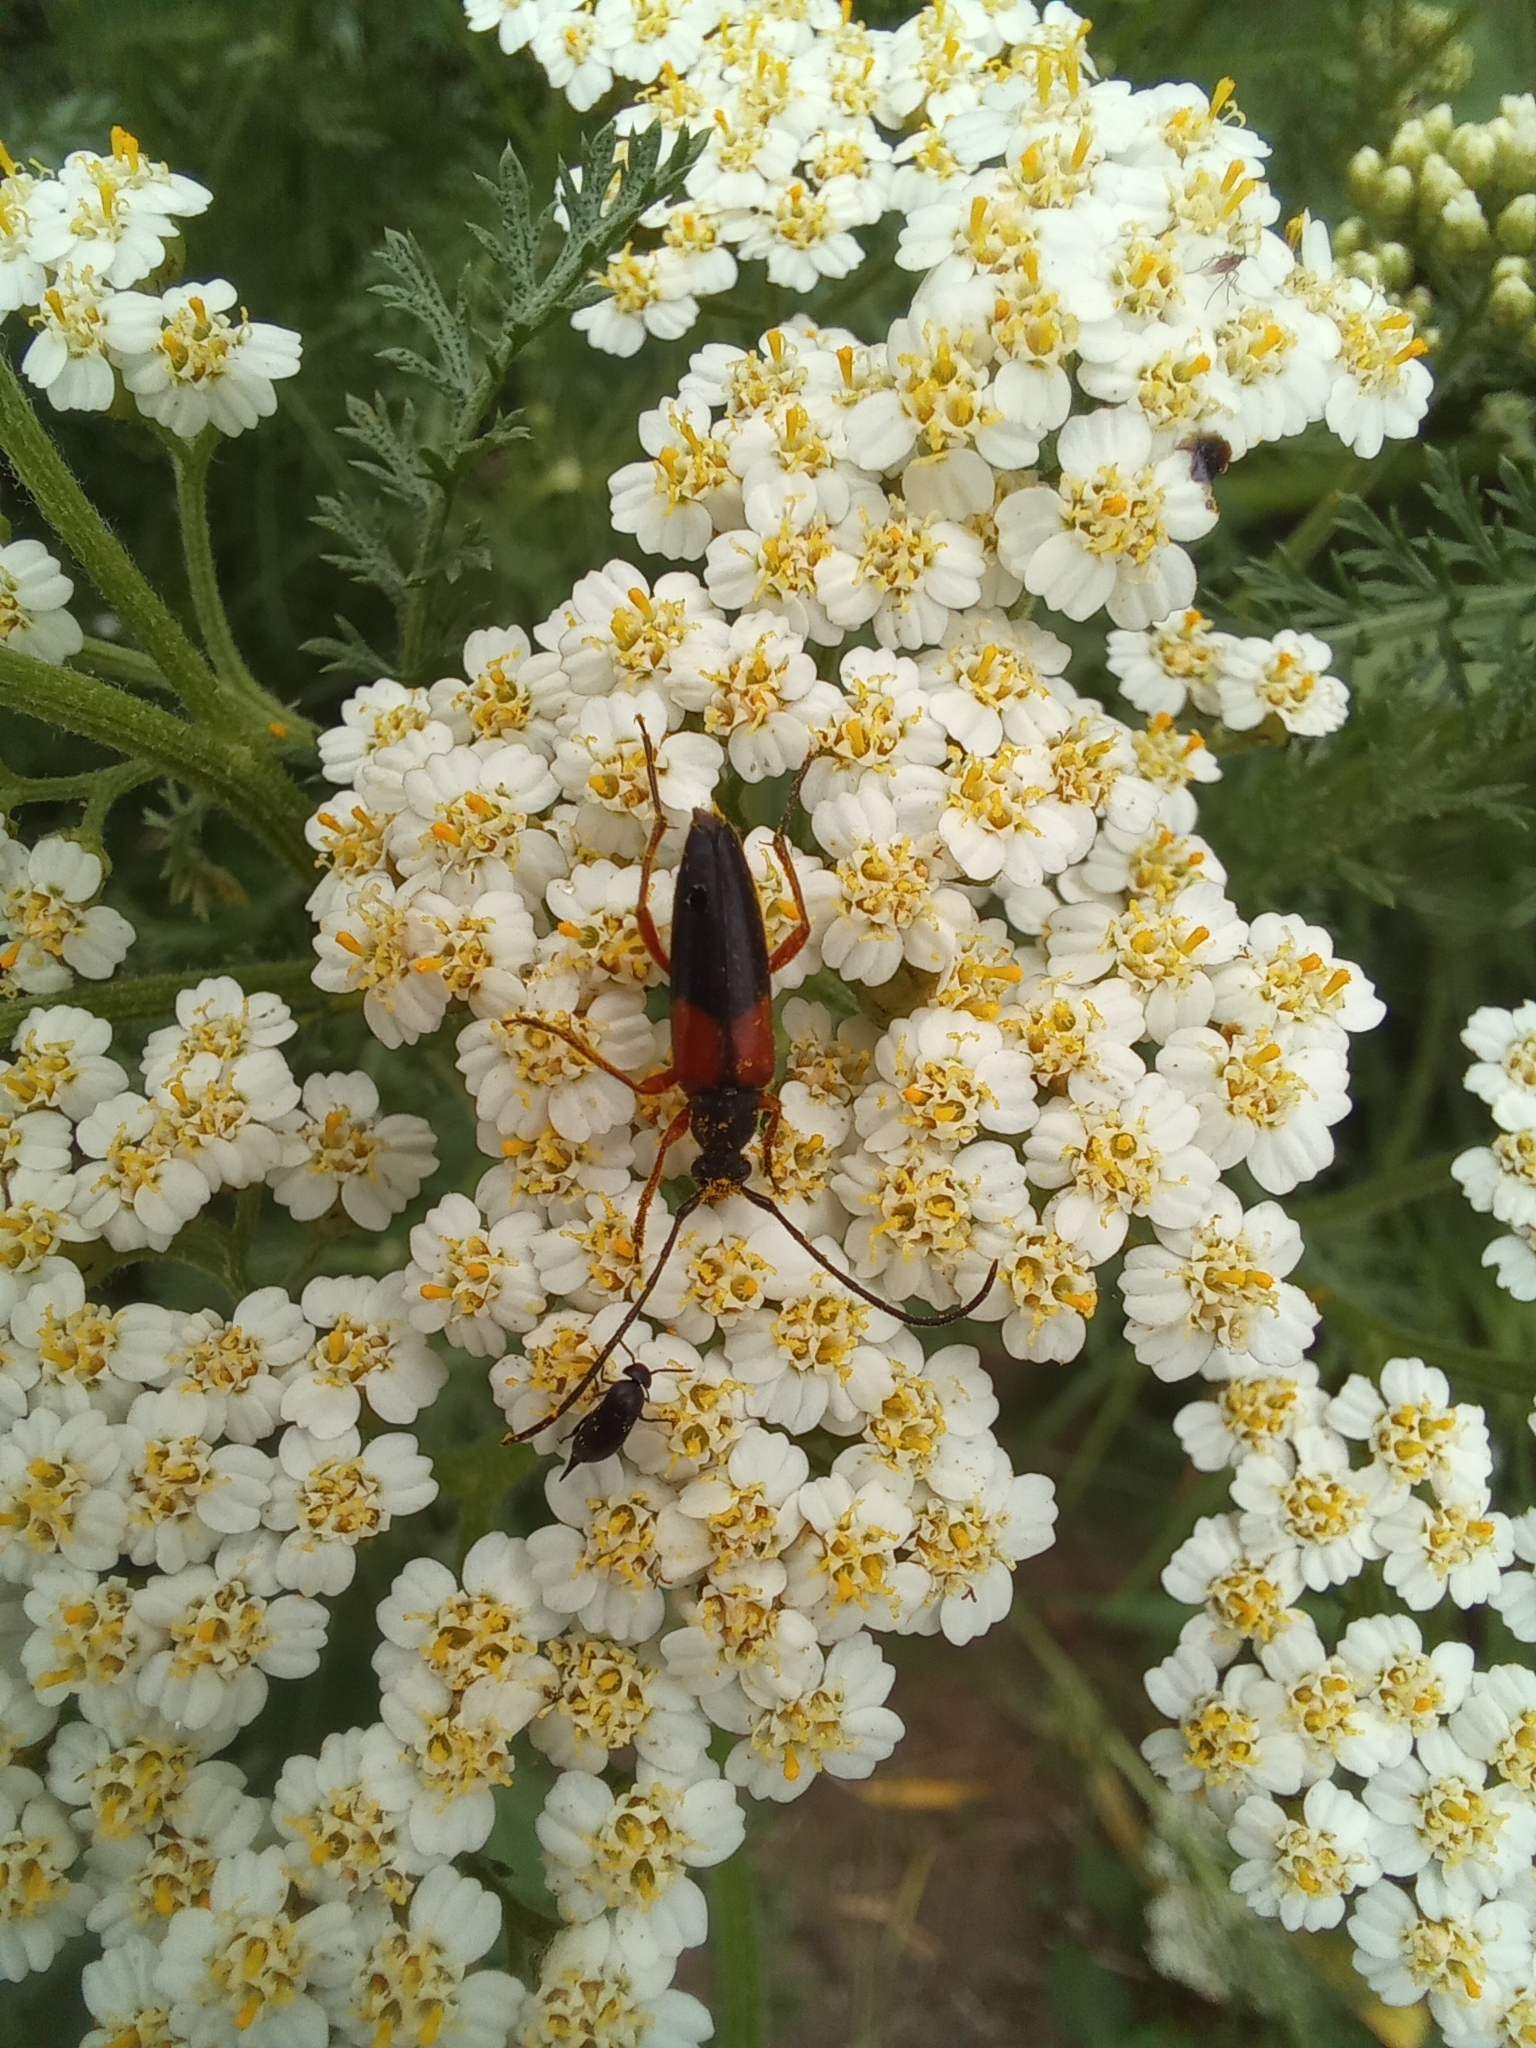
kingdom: Animalia
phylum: Arthropoda
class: Insecta
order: Coleoptera
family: Cerambycidae
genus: Stenurella
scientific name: Stenurella jaegeri
